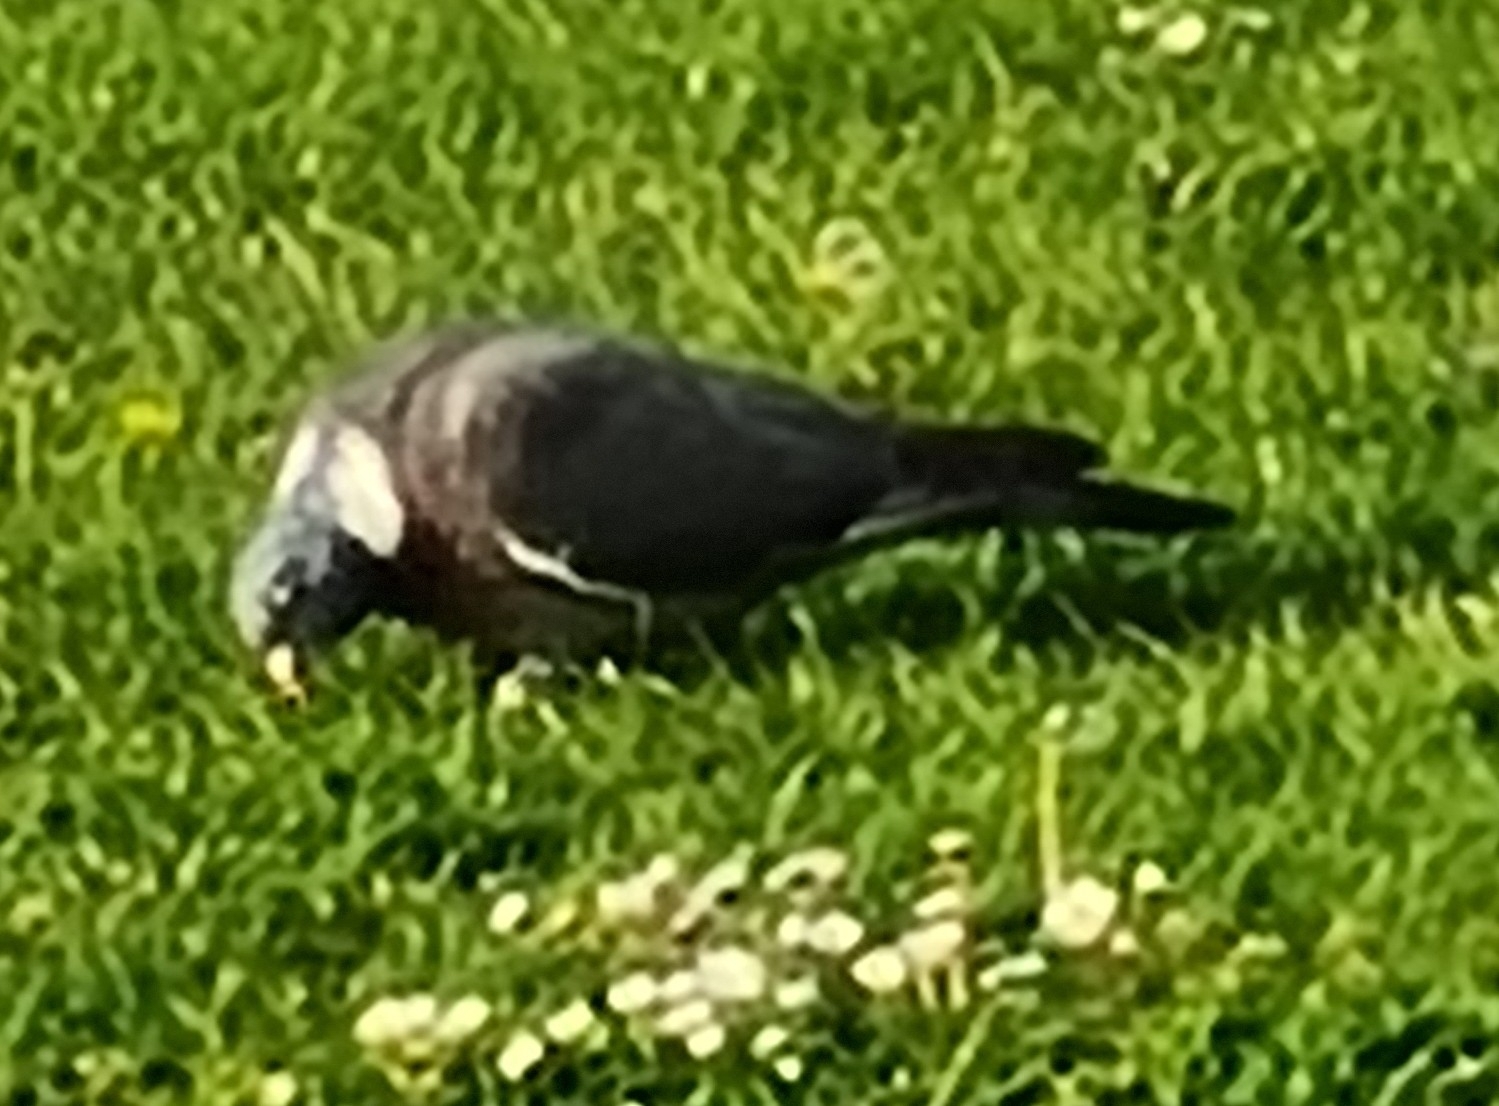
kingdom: Animalia
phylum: Chordata
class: Aves
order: Columbiformes
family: Columbidae
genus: Columba
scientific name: Columba palumbus
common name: Common wood pigeon
